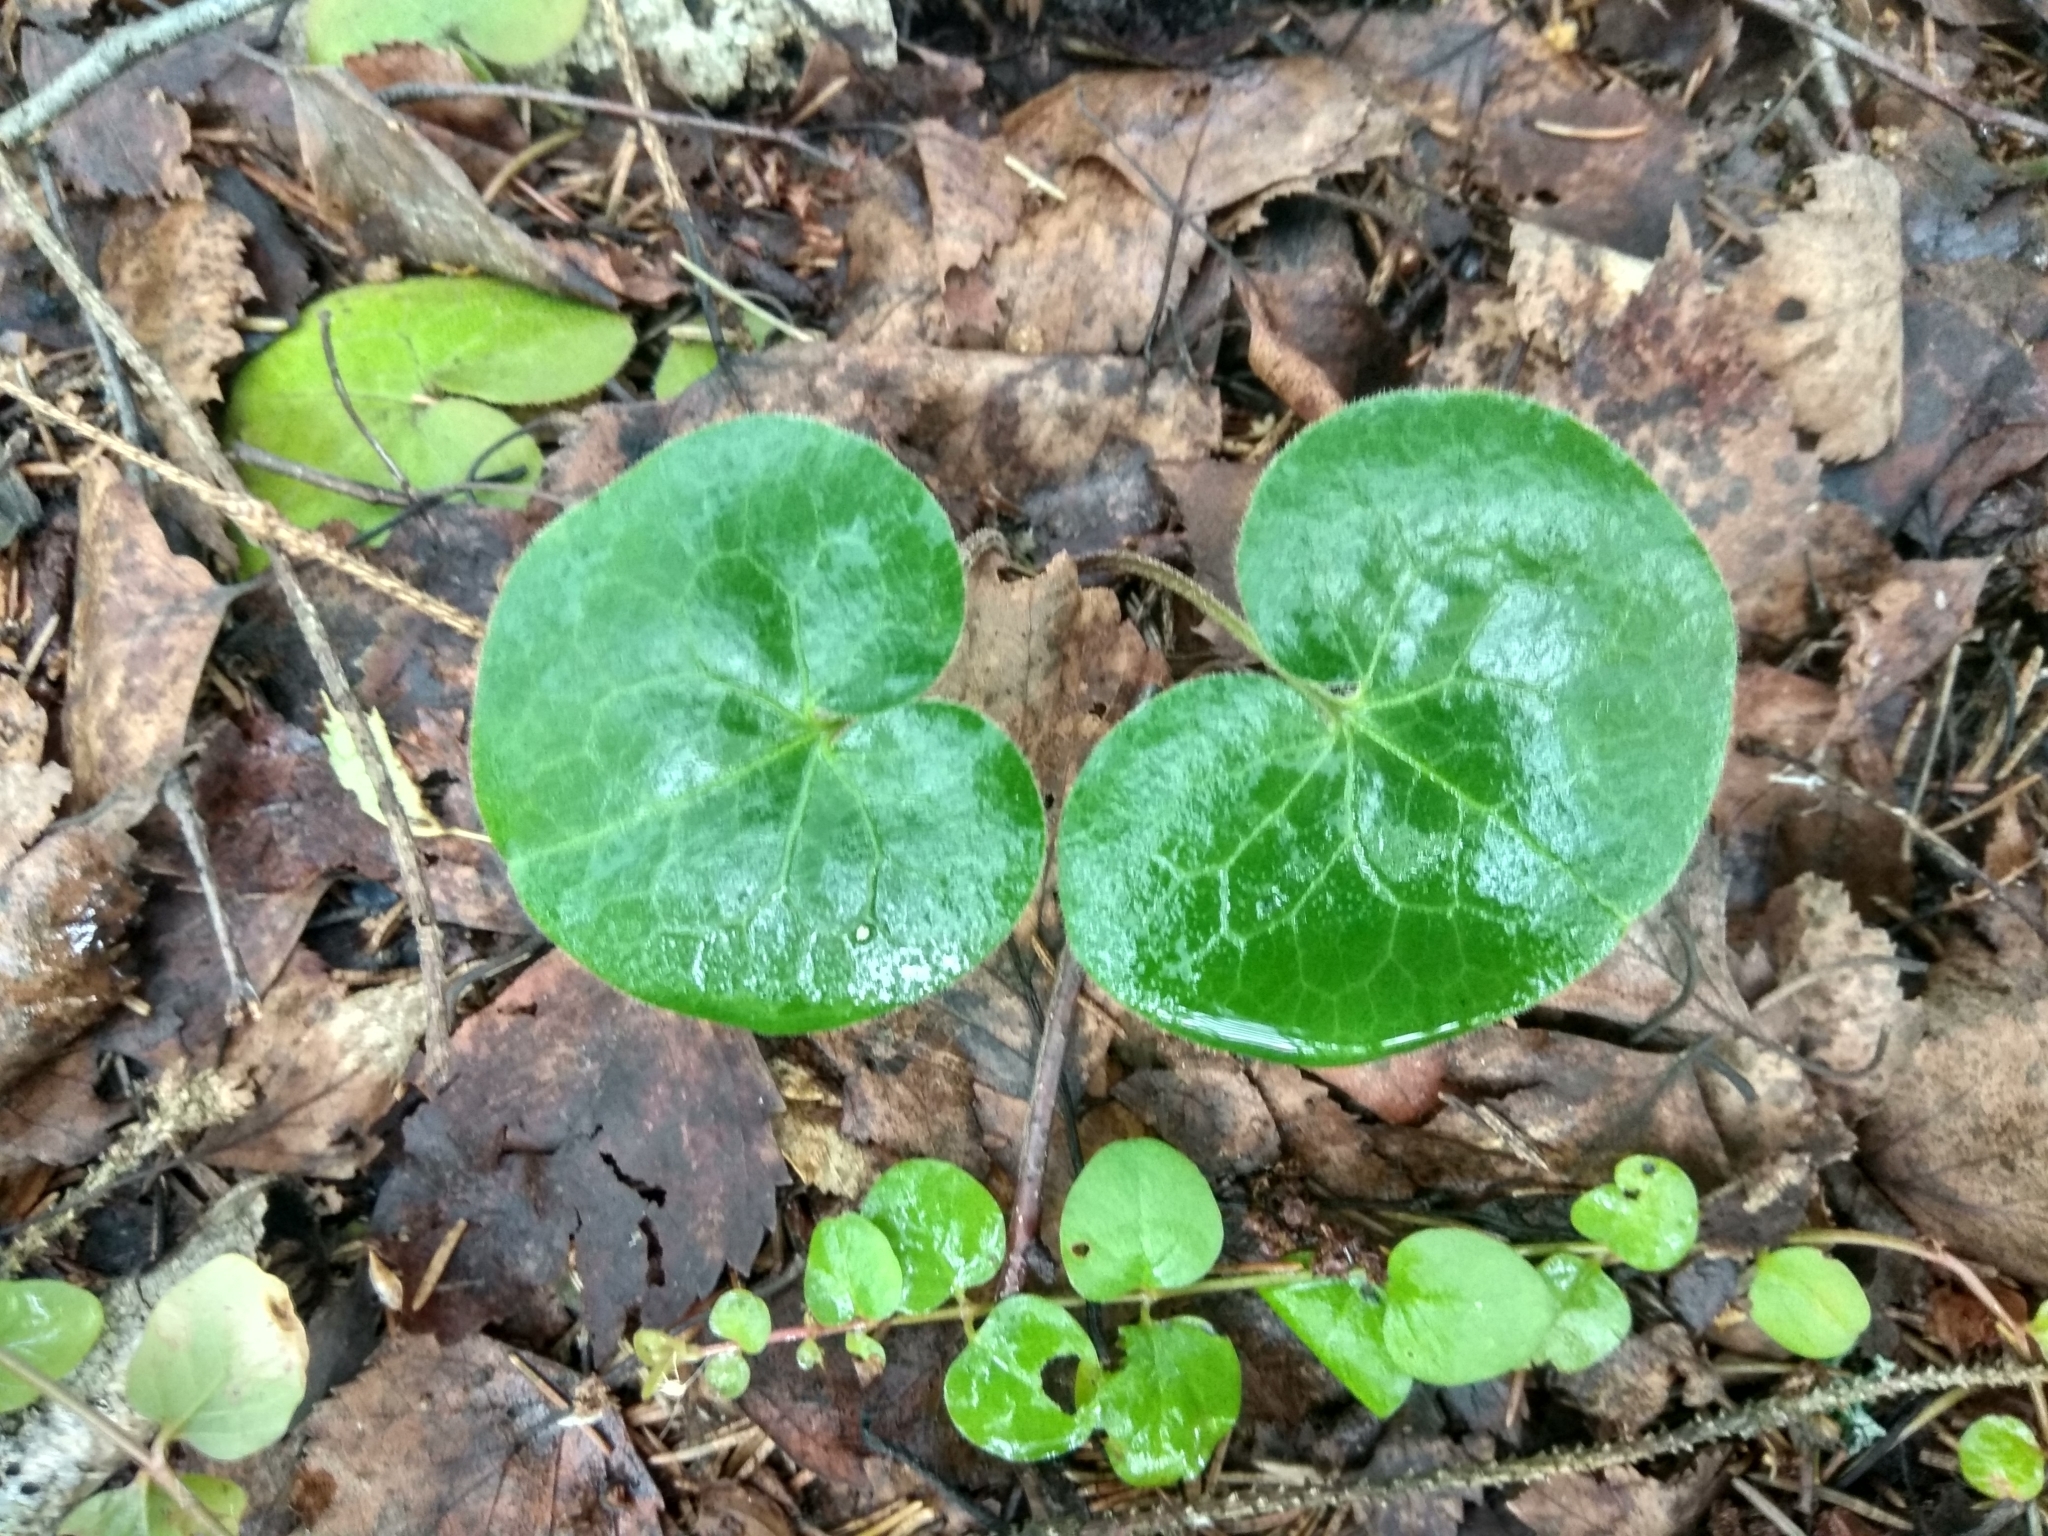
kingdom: Plantae
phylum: Tracheophyta
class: Magnoliopsida
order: Piperales
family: Aristolochiaceae
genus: Asarum
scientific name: Asarum europaeum
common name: Asarabacca
